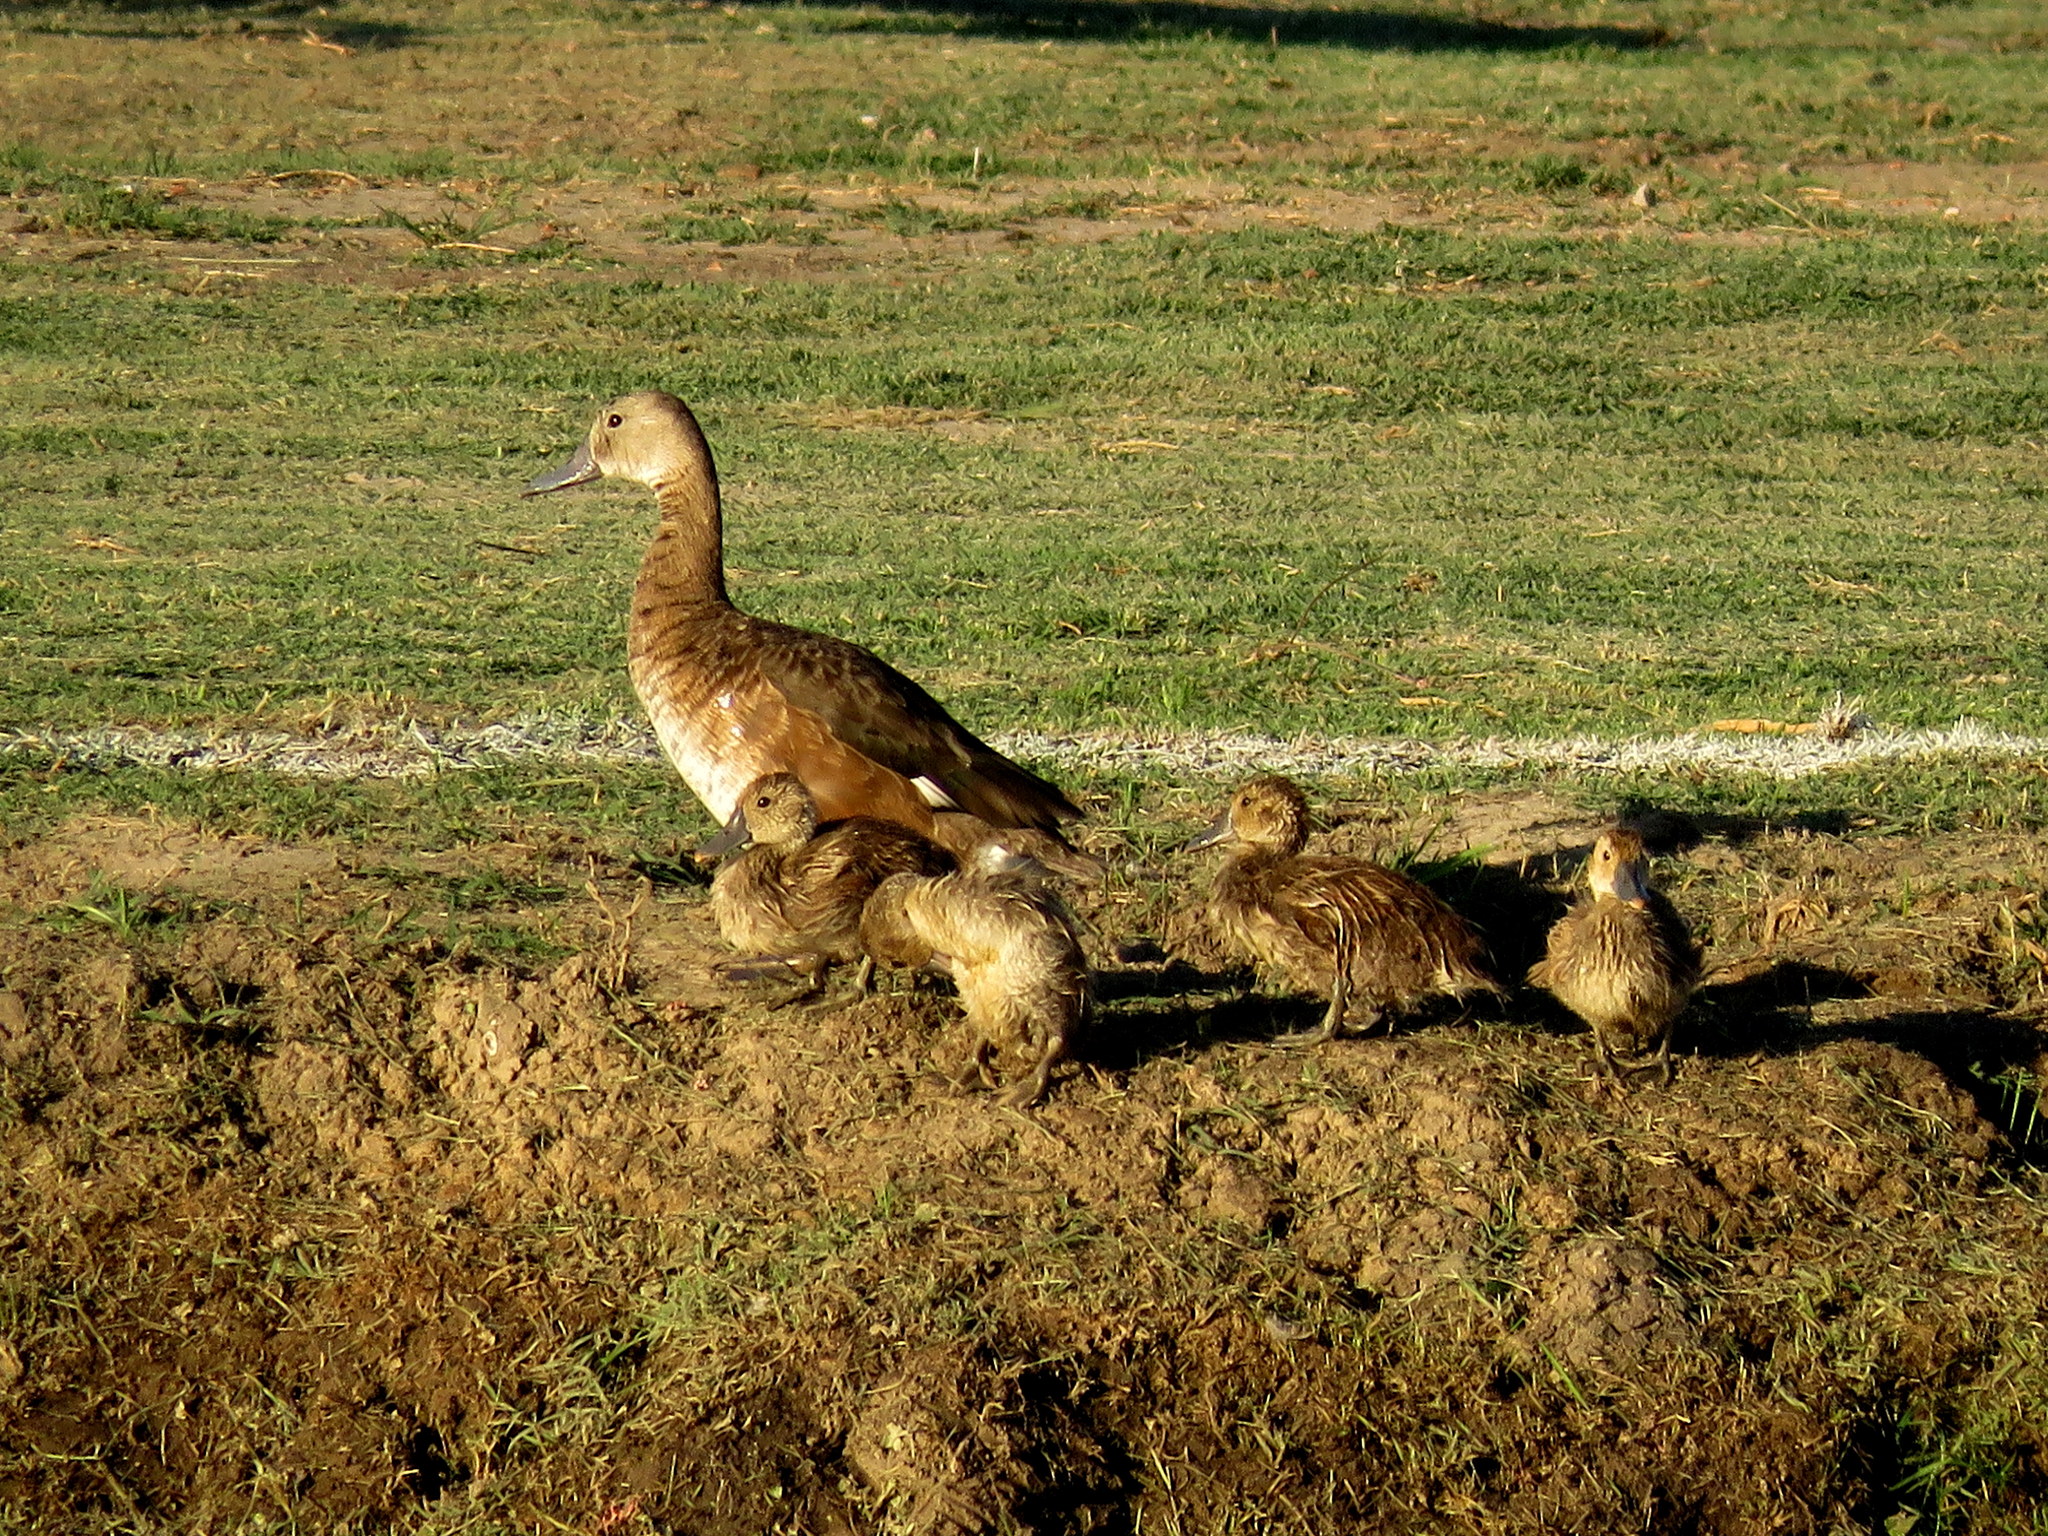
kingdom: Animalia
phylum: Chordata
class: Aves
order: Anseriformes
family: Anatidae
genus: Netta
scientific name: Netta peposaca
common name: Rosy-billed pochard
